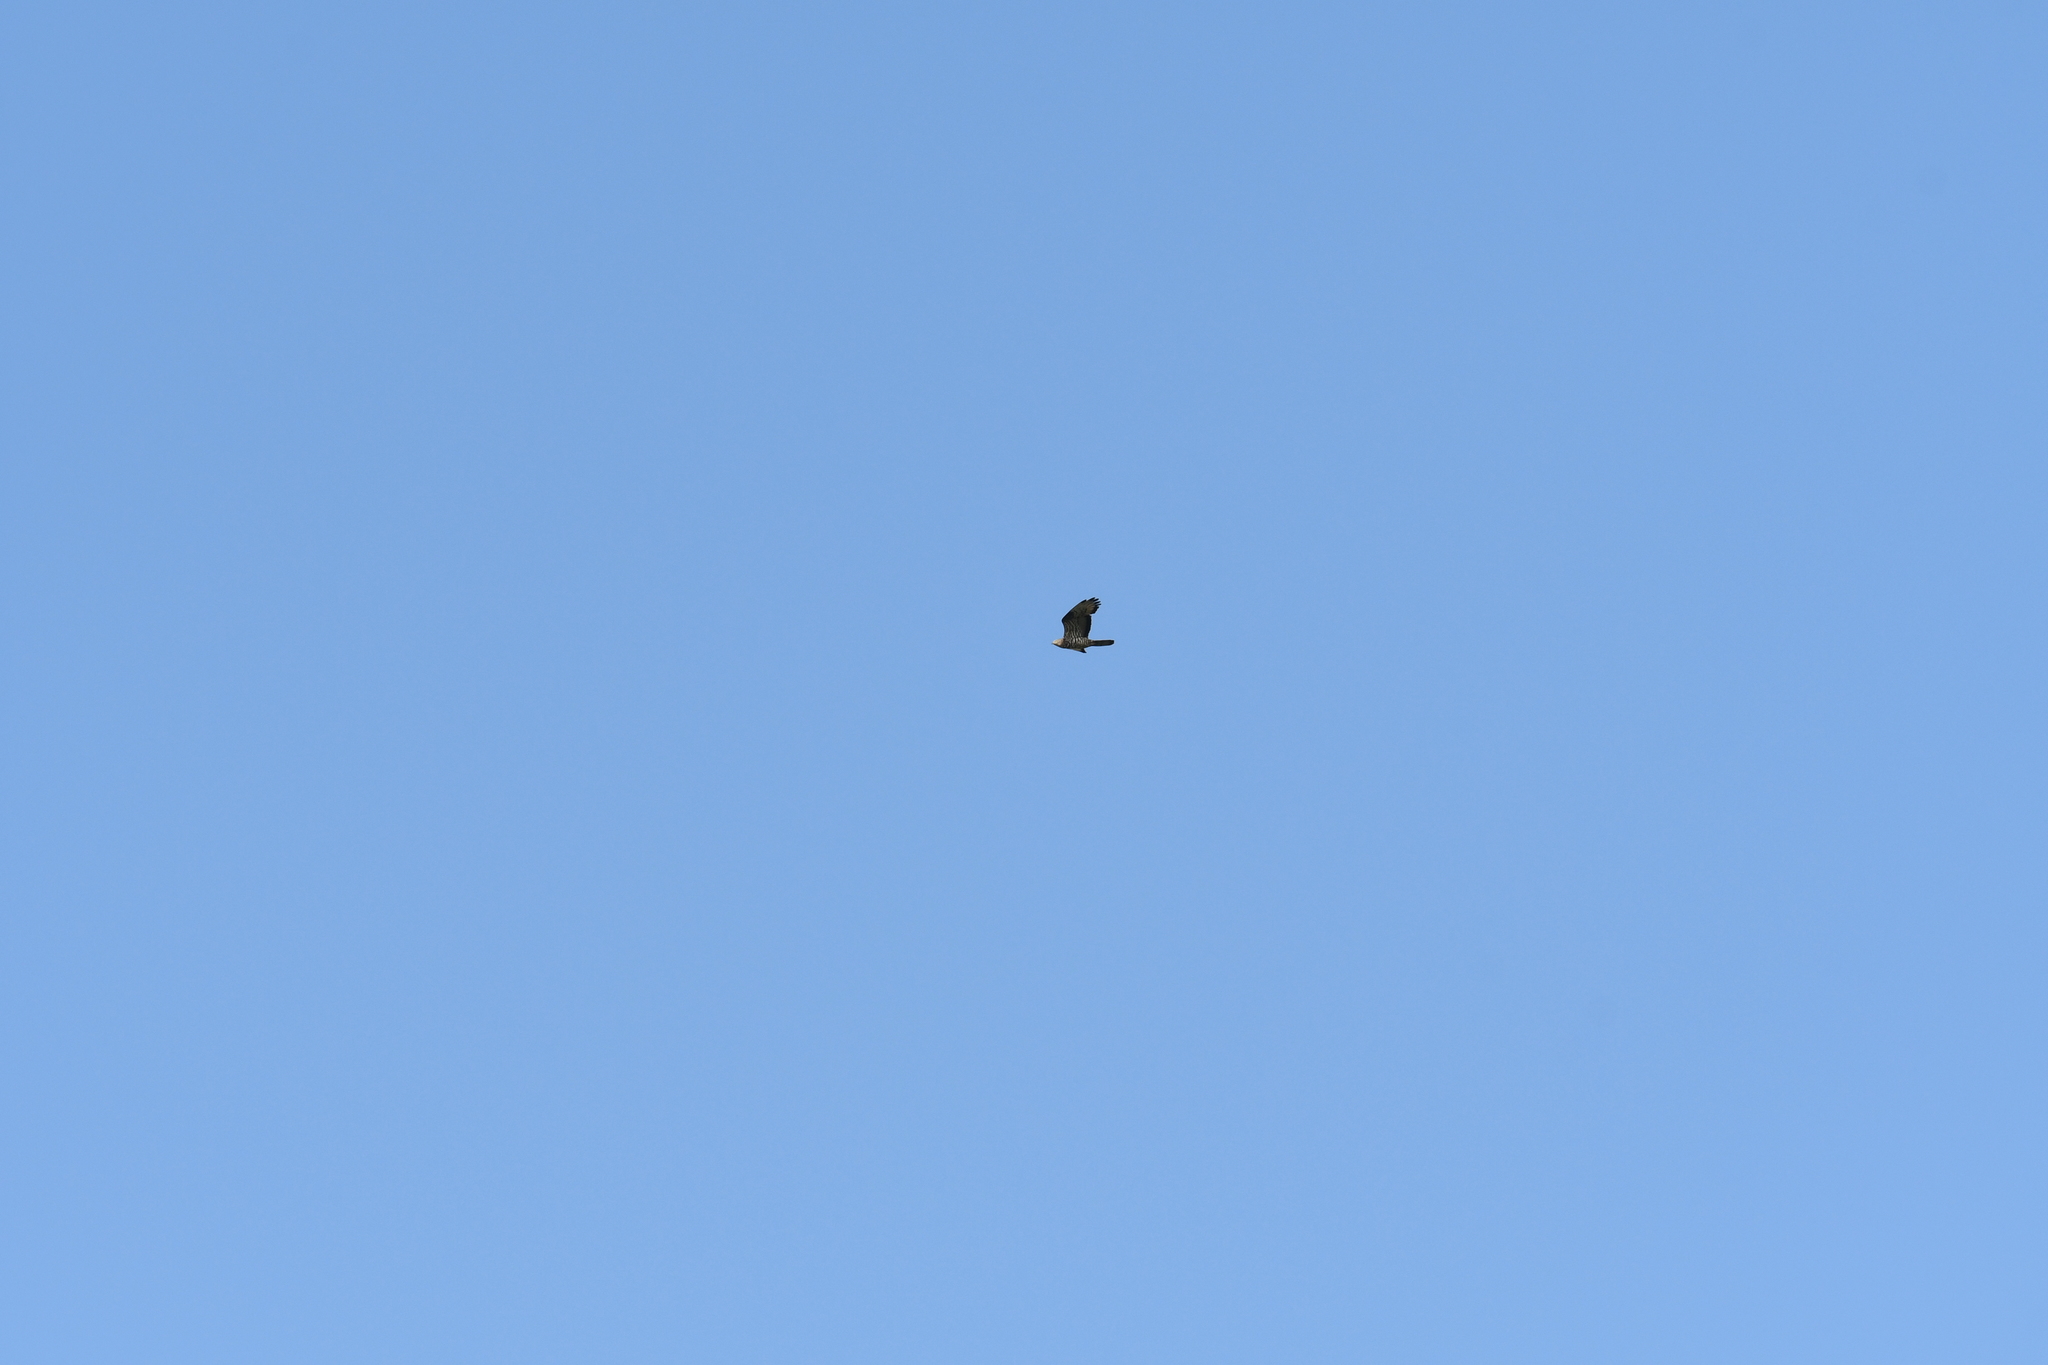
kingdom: Animalia
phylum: Chordata
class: Aves
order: Accipitriformes
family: Accipitridae
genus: Pernis
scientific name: Pernis apivorus
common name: European honey buzzard
